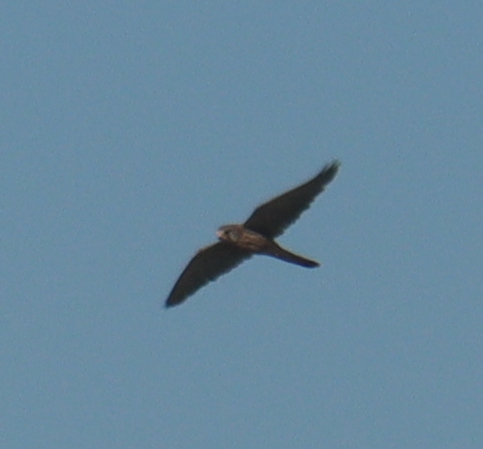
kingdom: Animalia
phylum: Chordata
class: Aves
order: Falconiformes
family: Falconidae
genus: Falco
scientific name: Falco tinnunculus
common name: Common kestrel
